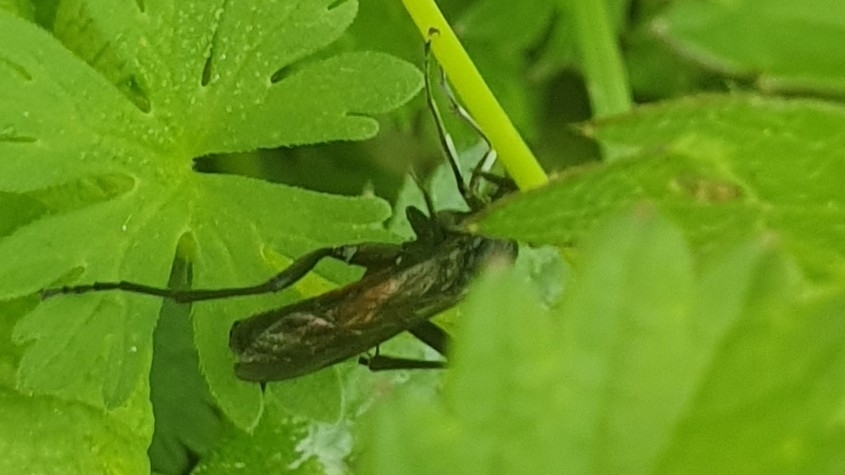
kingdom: Animalia
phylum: Arthropoda
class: Insecta
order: Hymenoptera
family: Tenthredinidae
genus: Macrophya
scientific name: Macrophya annulata
